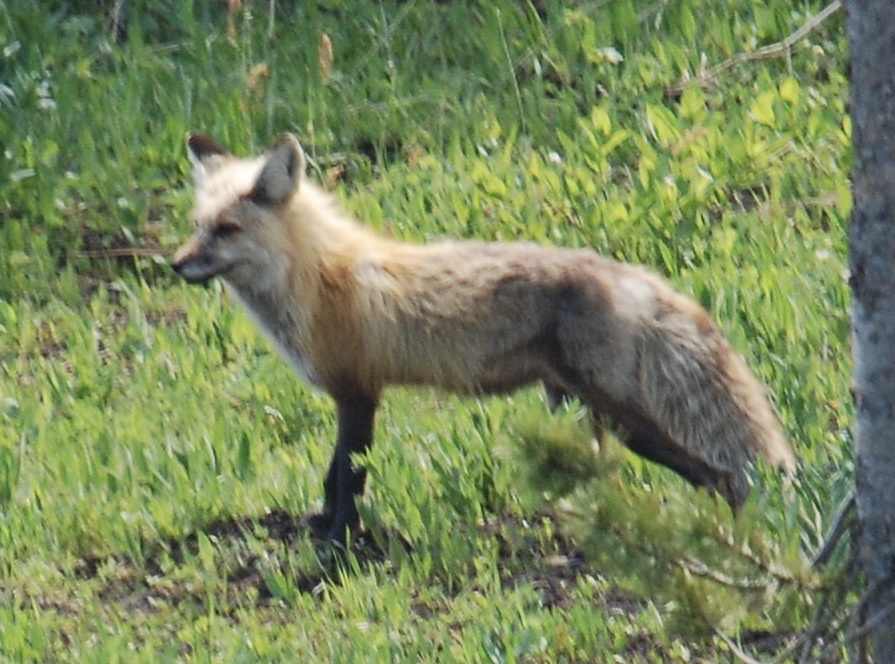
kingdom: Animalia
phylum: Chordata
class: Mammalia
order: Carnivora
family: Canidae
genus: Vulpes
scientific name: Vulpes vulpes
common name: Red fox
